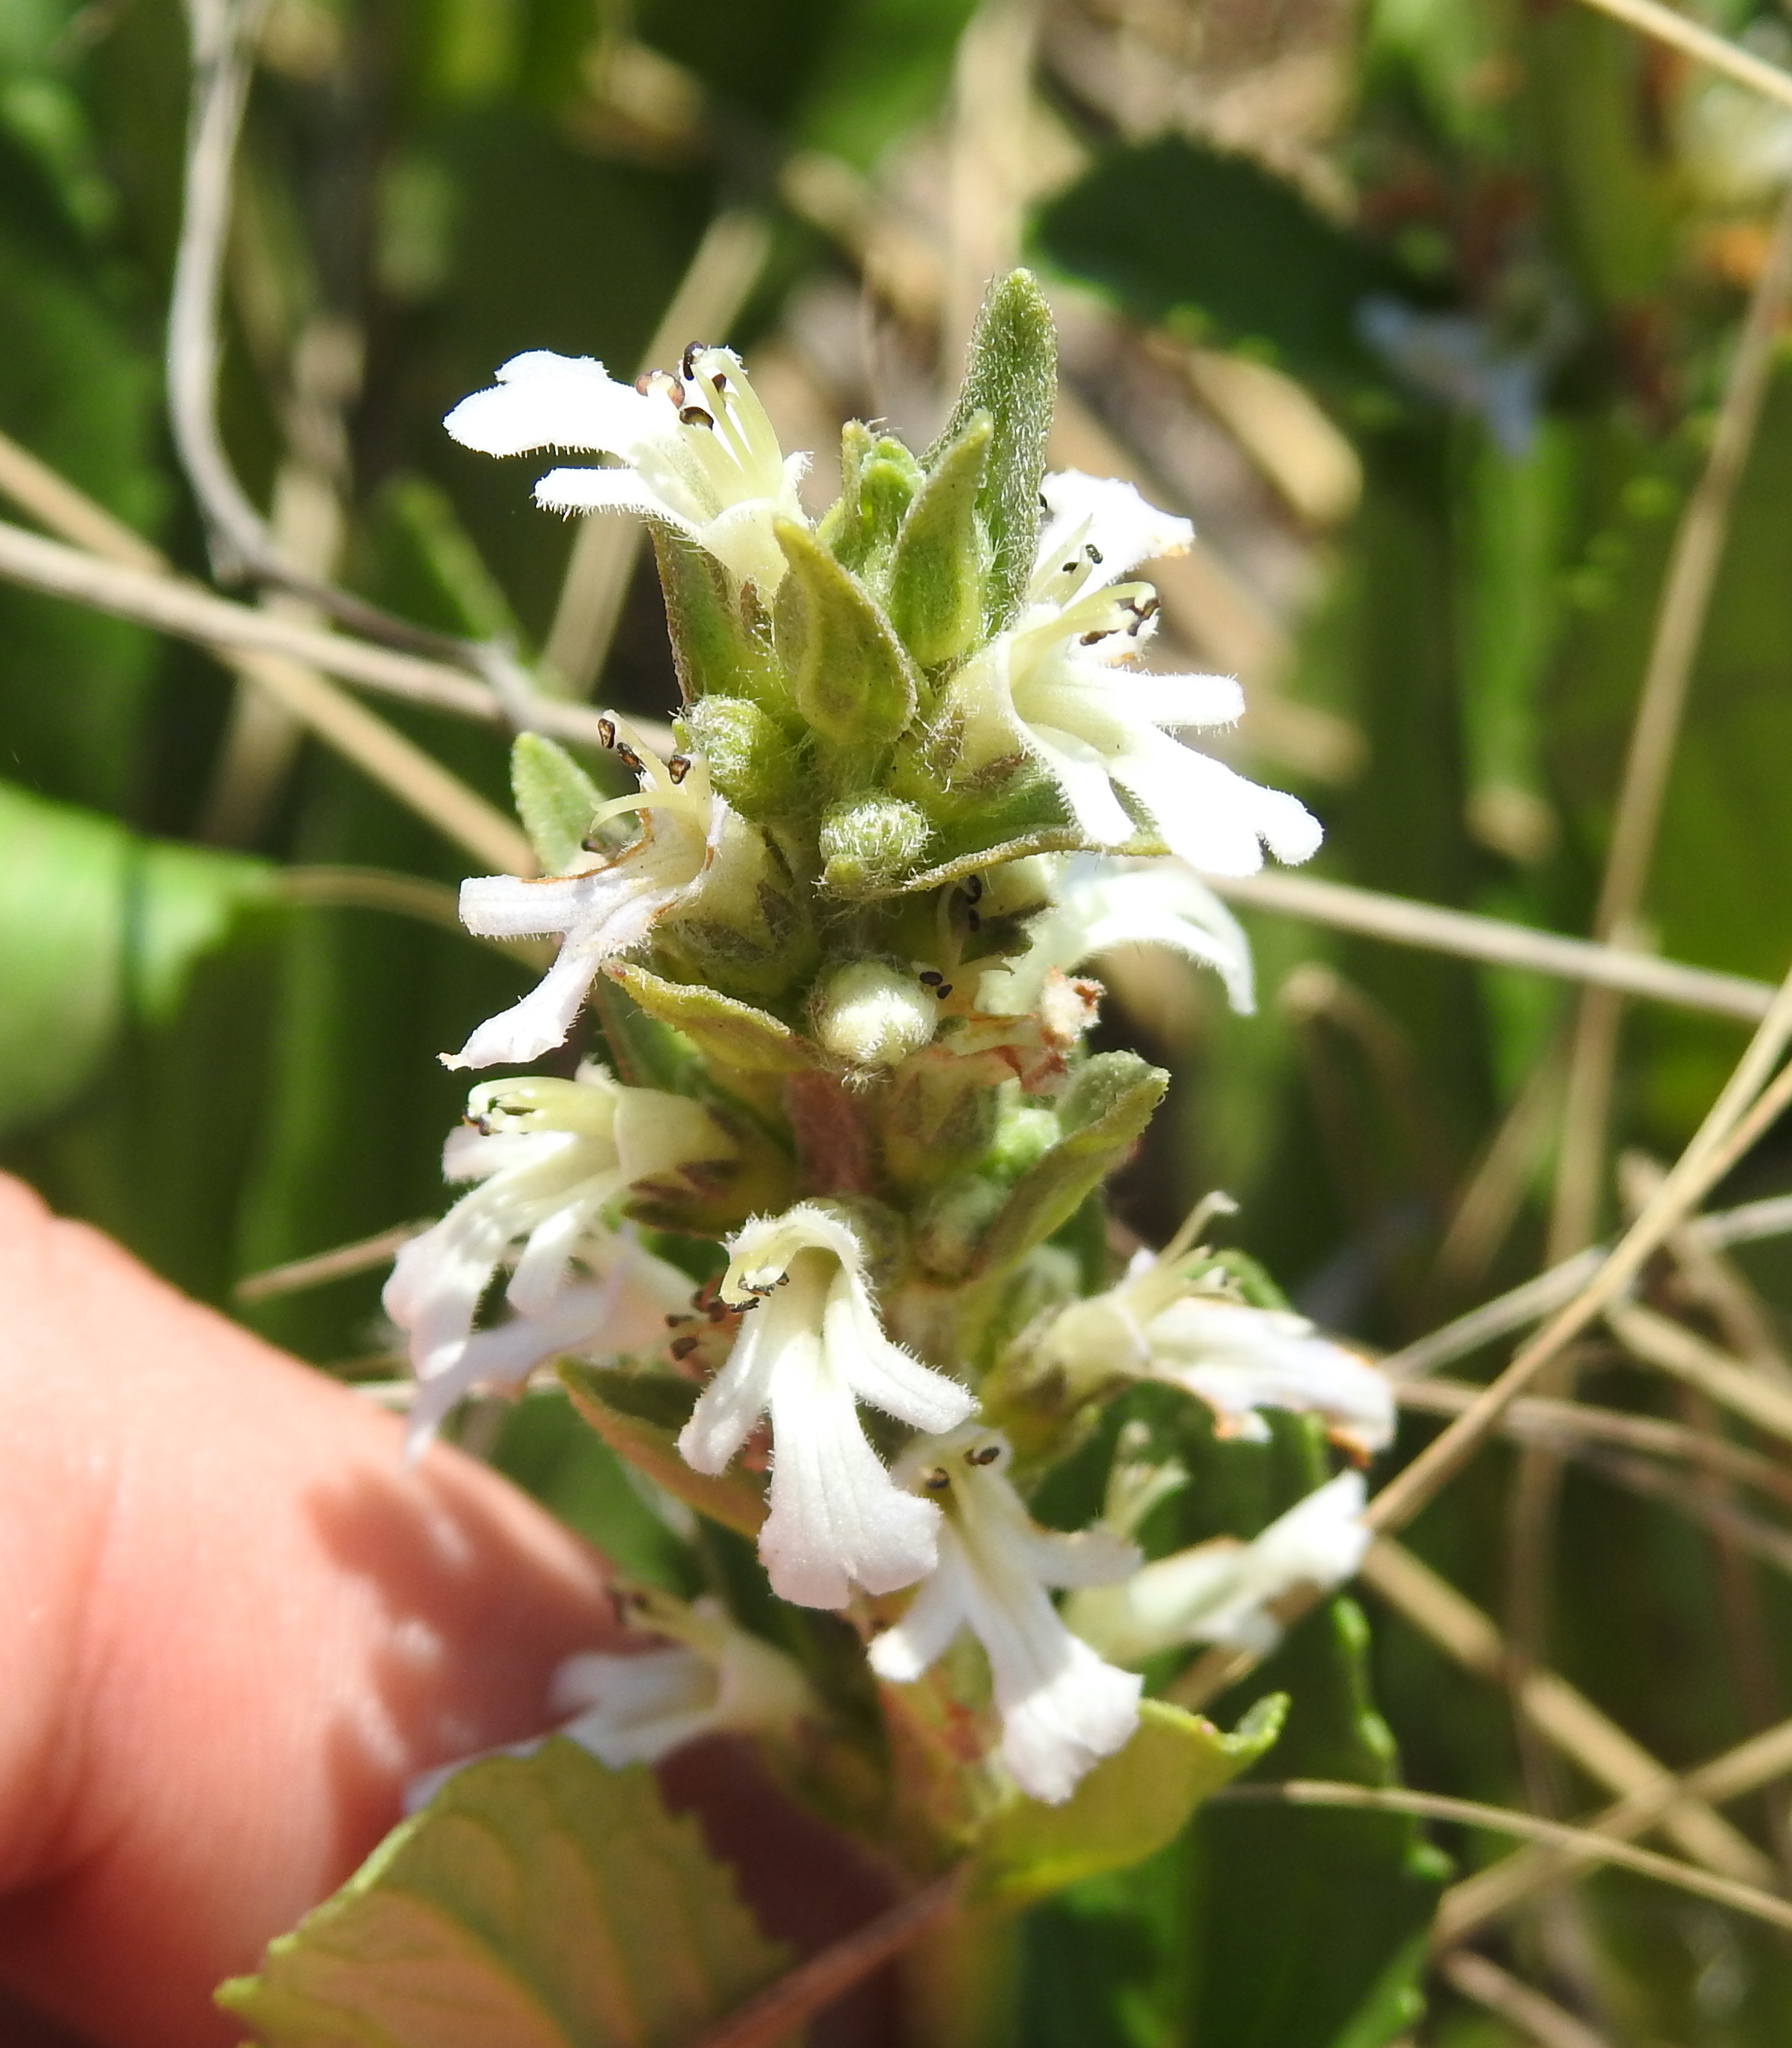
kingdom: Plantae
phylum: Tracheophyta
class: Magnoliopsida
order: Lamiales
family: Lamiaceae
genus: Ajuga
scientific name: Ajuga ophrydis
